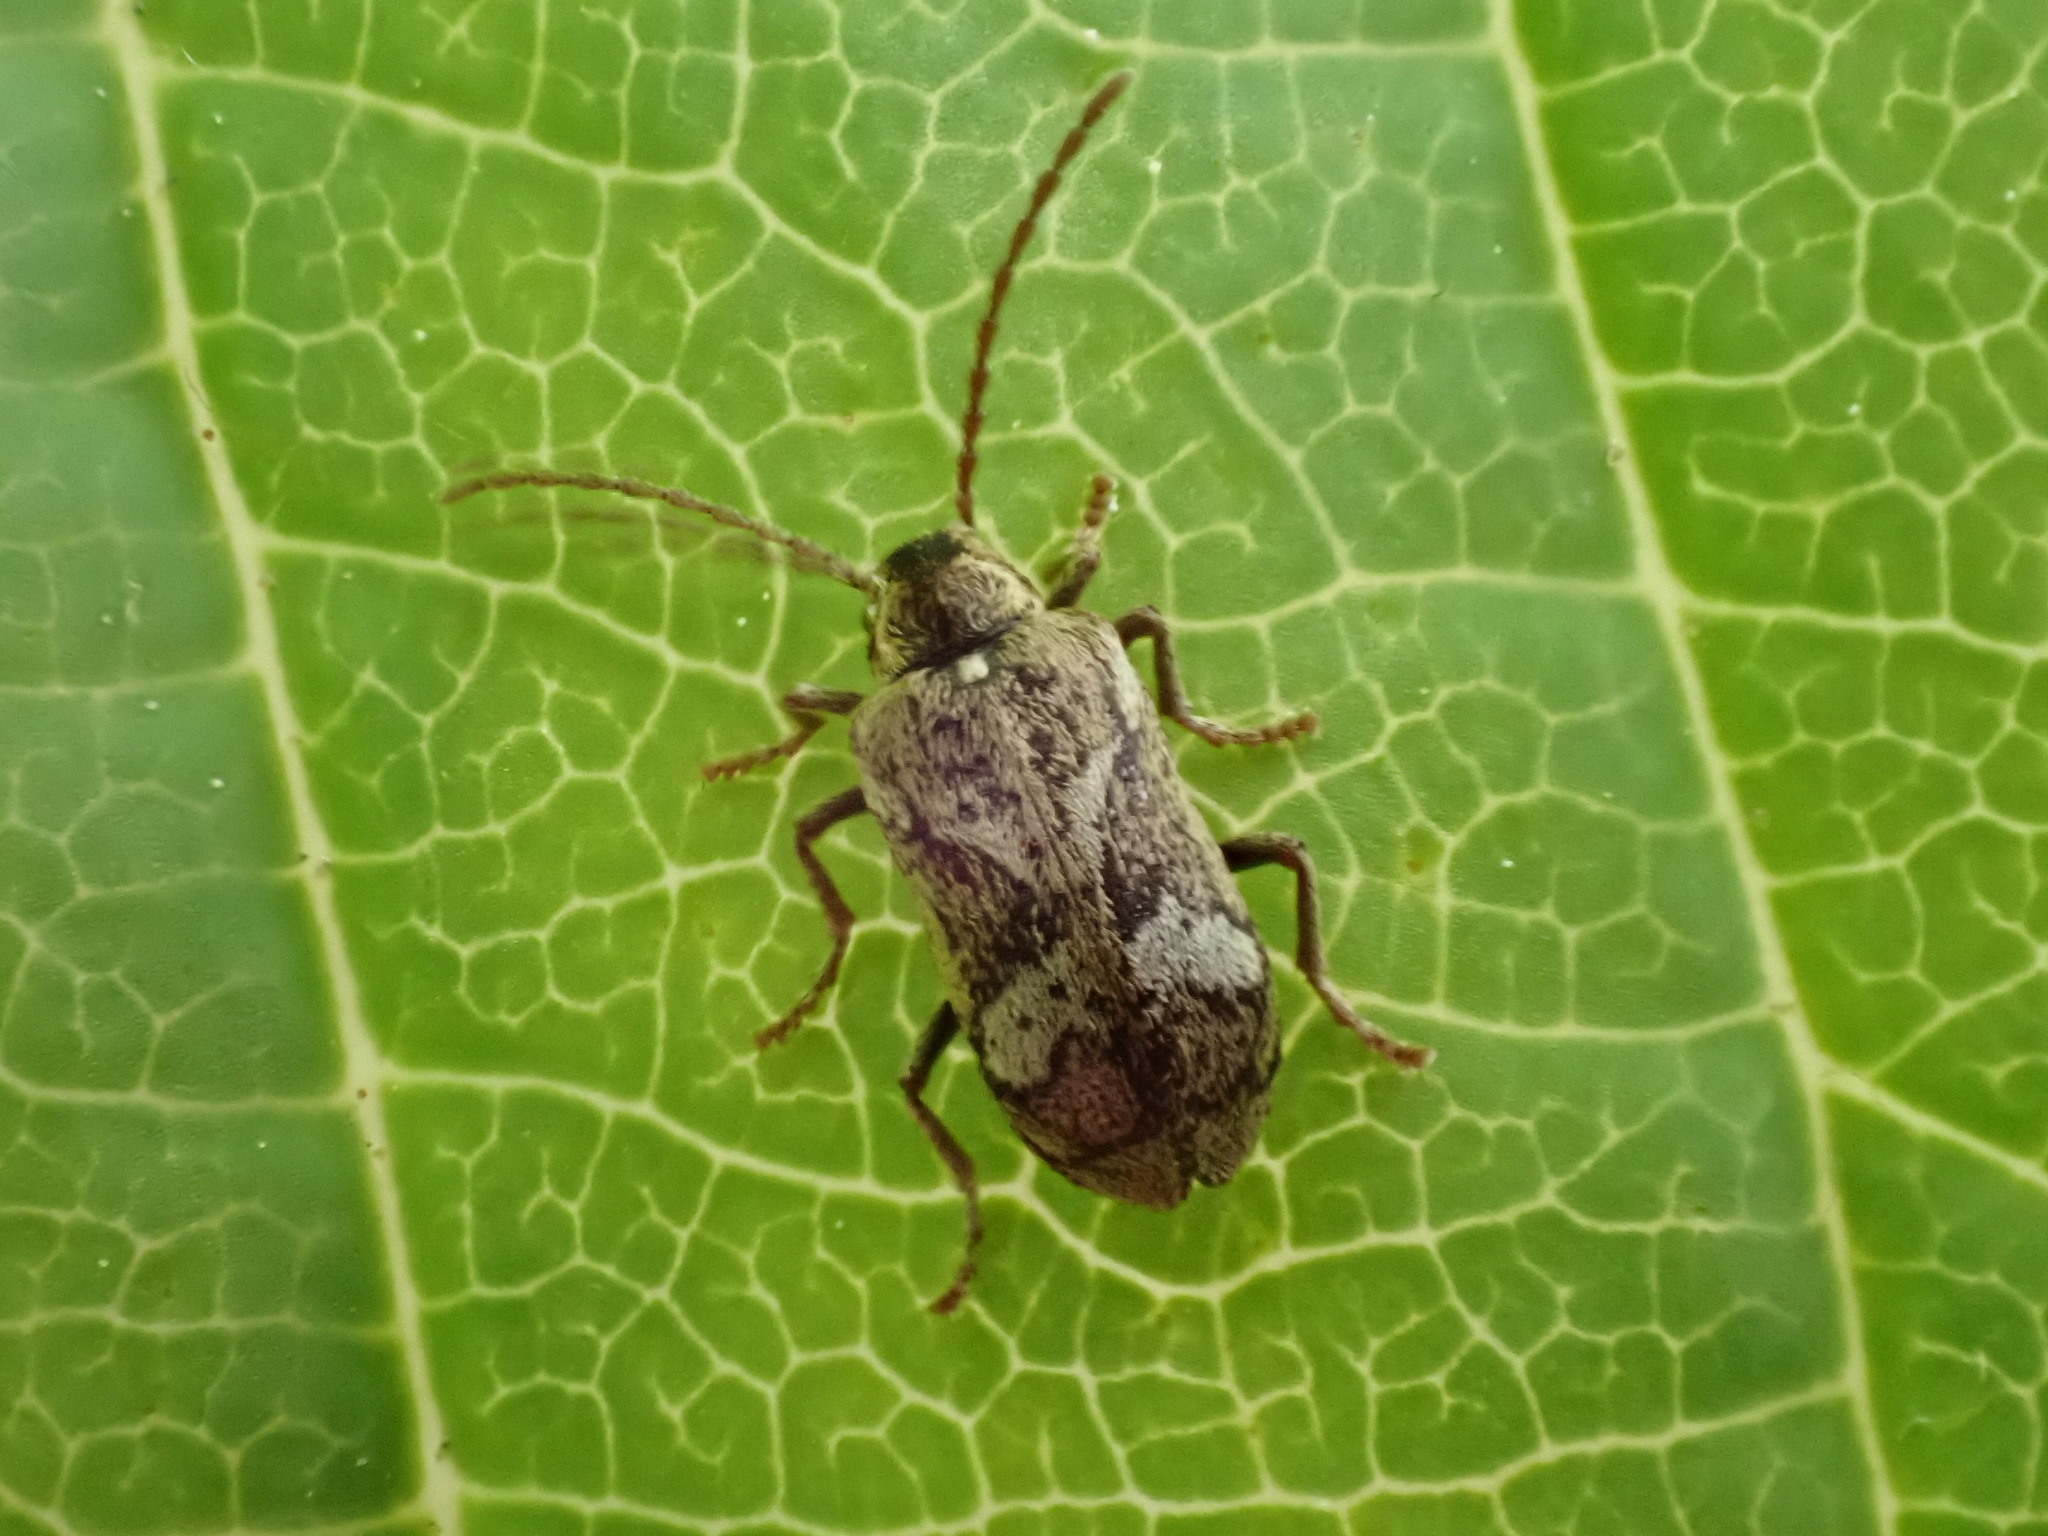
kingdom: Animalia
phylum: Arthropoda
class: Insecta
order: Coleoptera
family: Anobiidae
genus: Ptinomorphus
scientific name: Ptinomorphus imperialis
